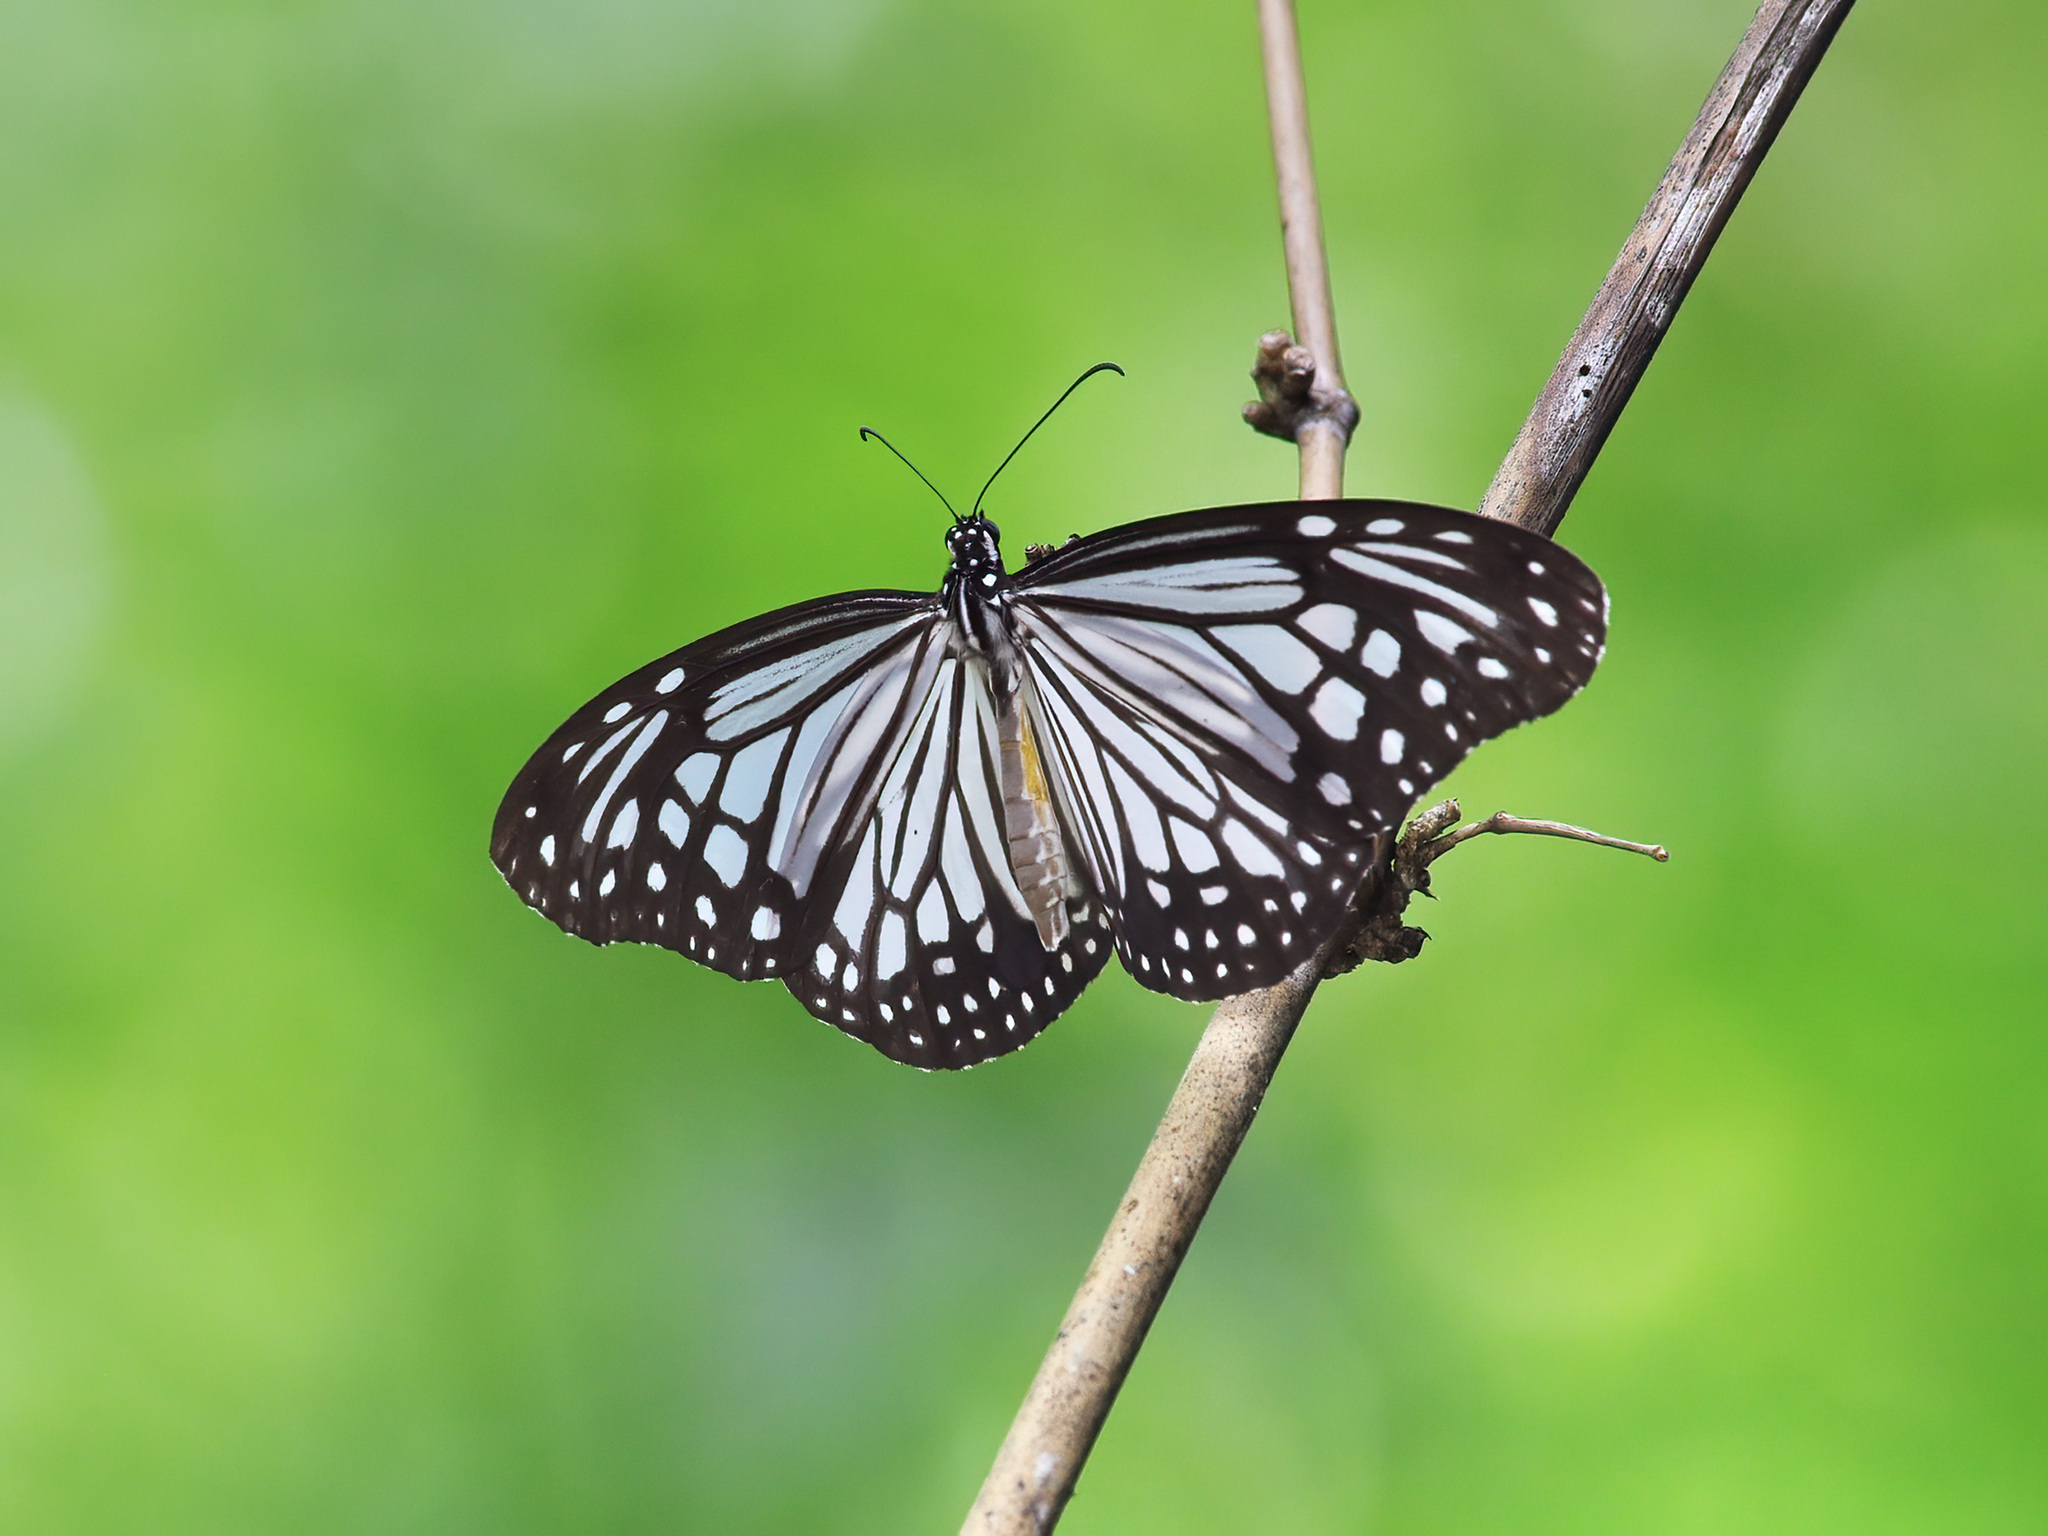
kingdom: Animalia
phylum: Arthropoda
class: Insecta
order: Lepidoptera
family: Nymphalidae
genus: Parantica
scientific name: Parantica aglea
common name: Glassy tiger
